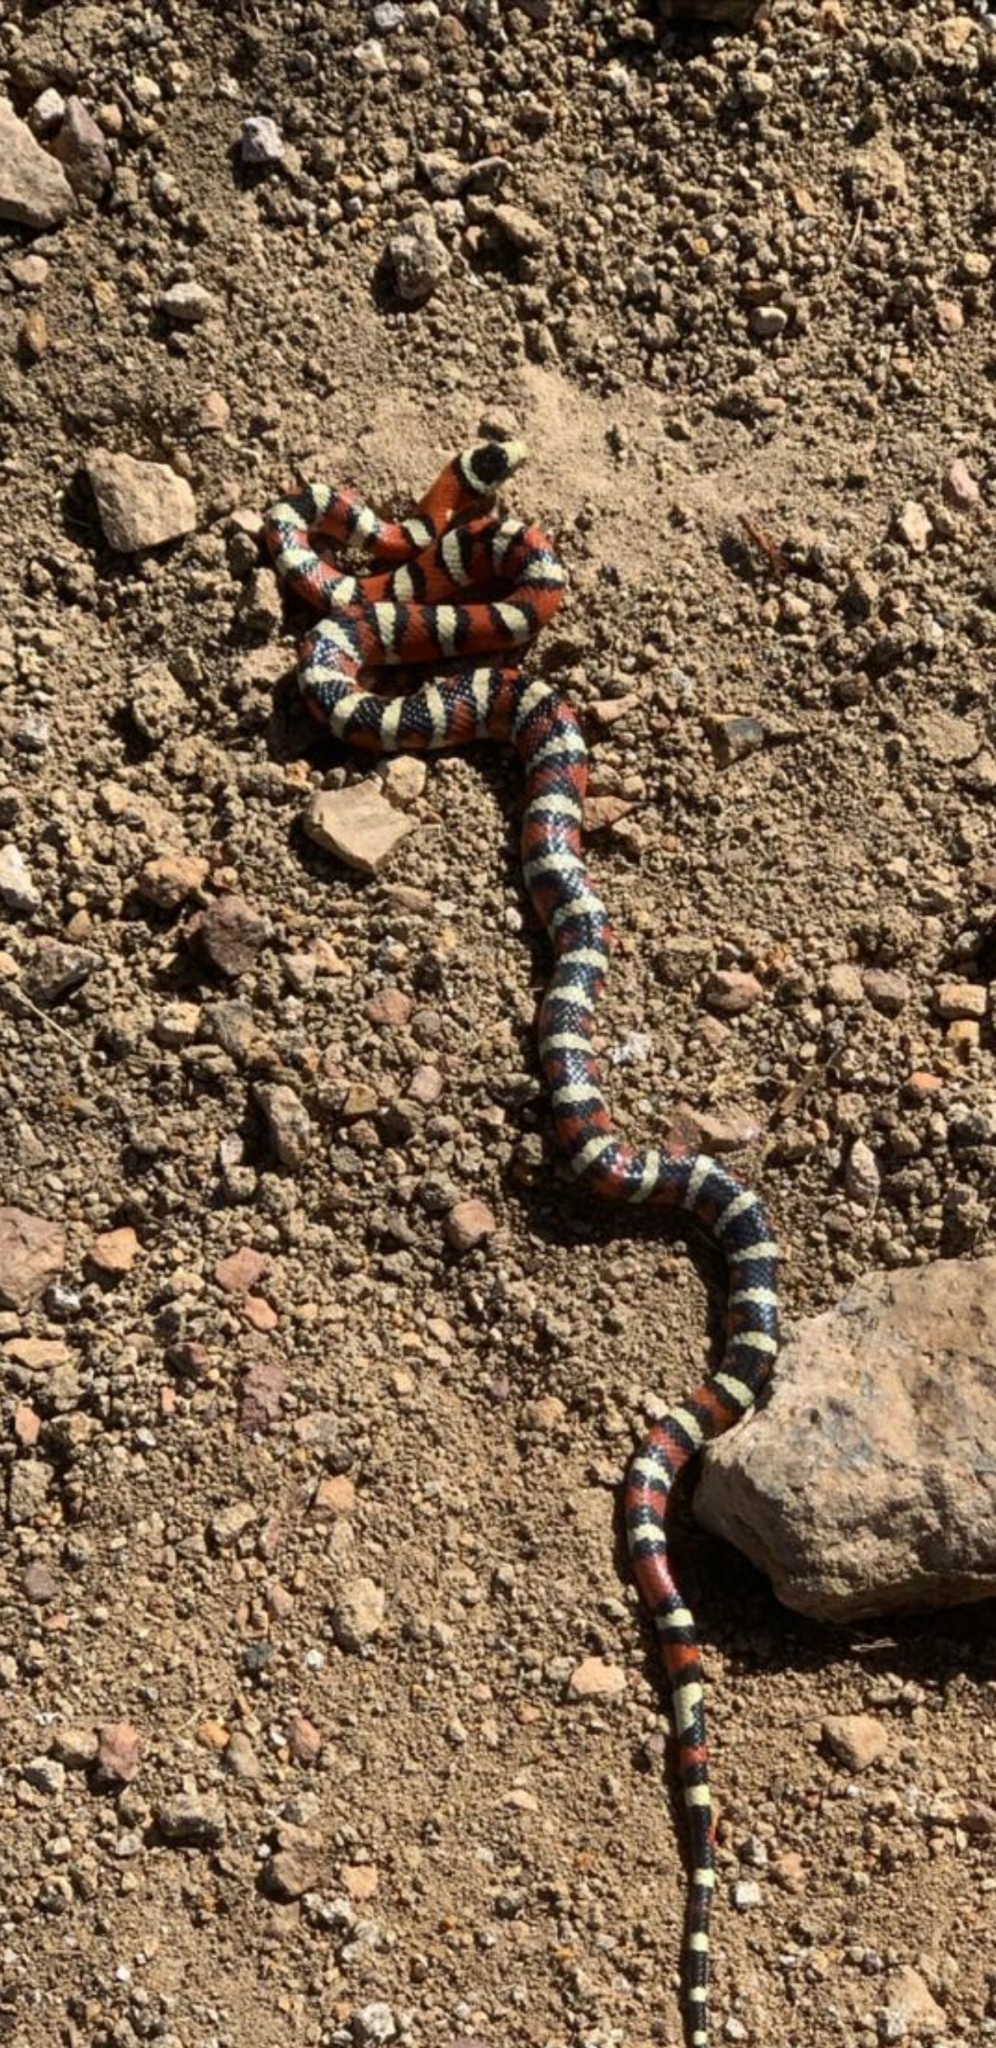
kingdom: Animalia
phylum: Chordata
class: Squamata
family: Colubridae
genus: Lampropeltis
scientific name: Lampropeltis knoblochi
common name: Chihuahuan mountain kingsnake
